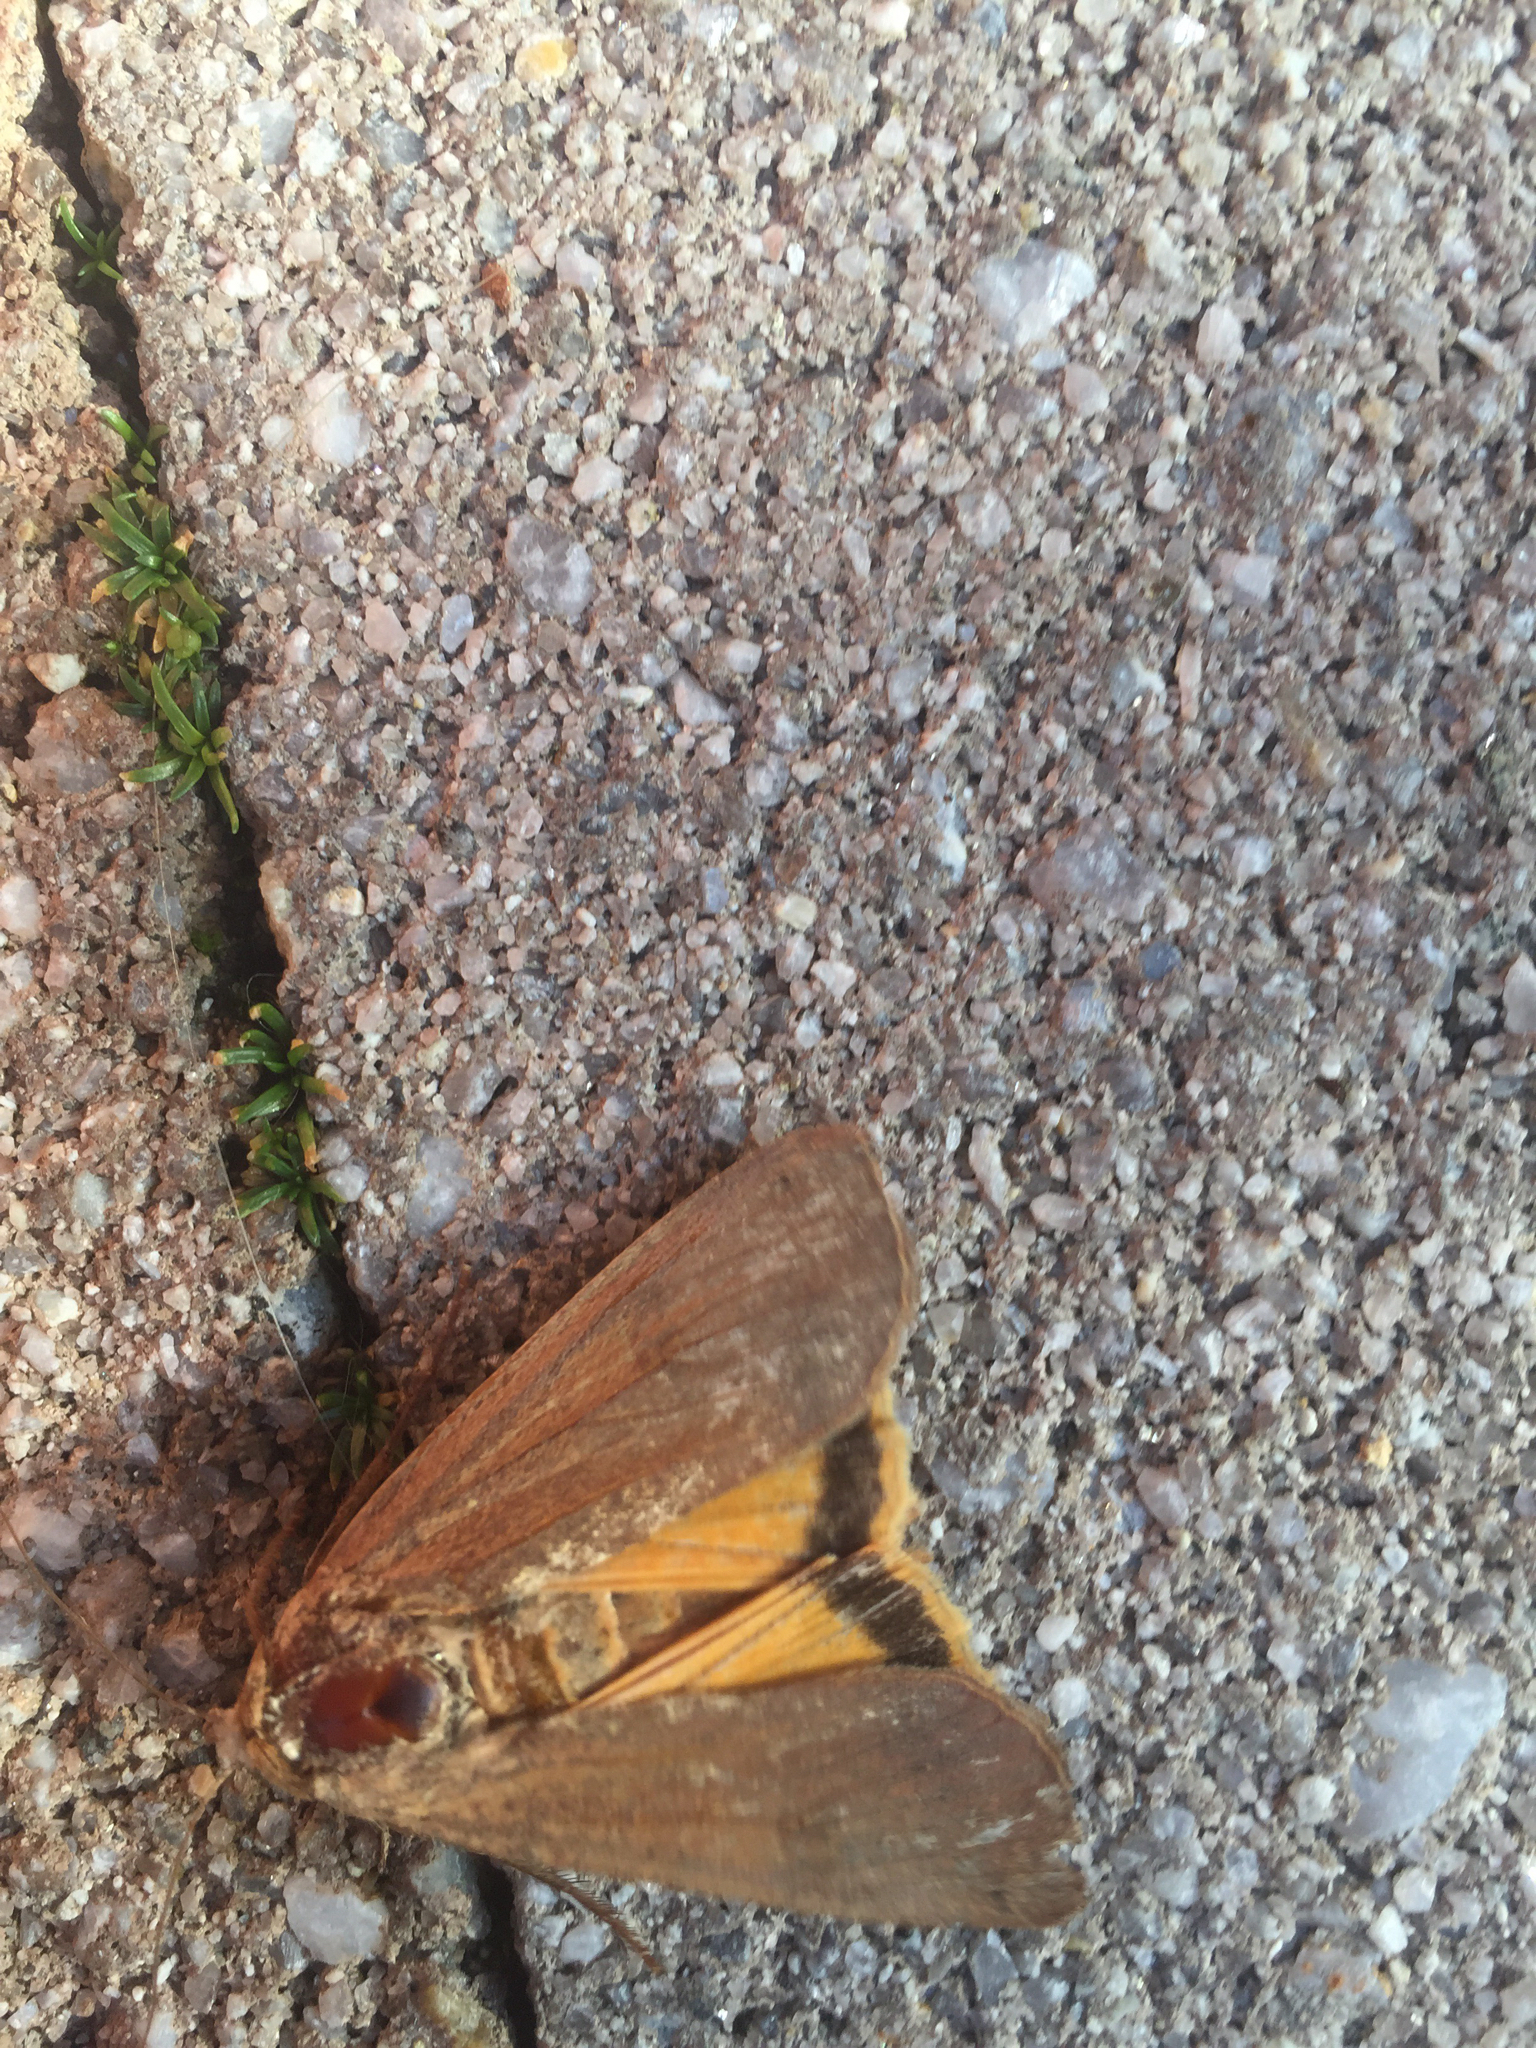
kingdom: Animalia
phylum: Arthropoda
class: Insecta
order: Lepidoptera
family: Noctuidae
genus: Noctua
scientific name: Noctua pronuba
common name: Large yellow underwing
